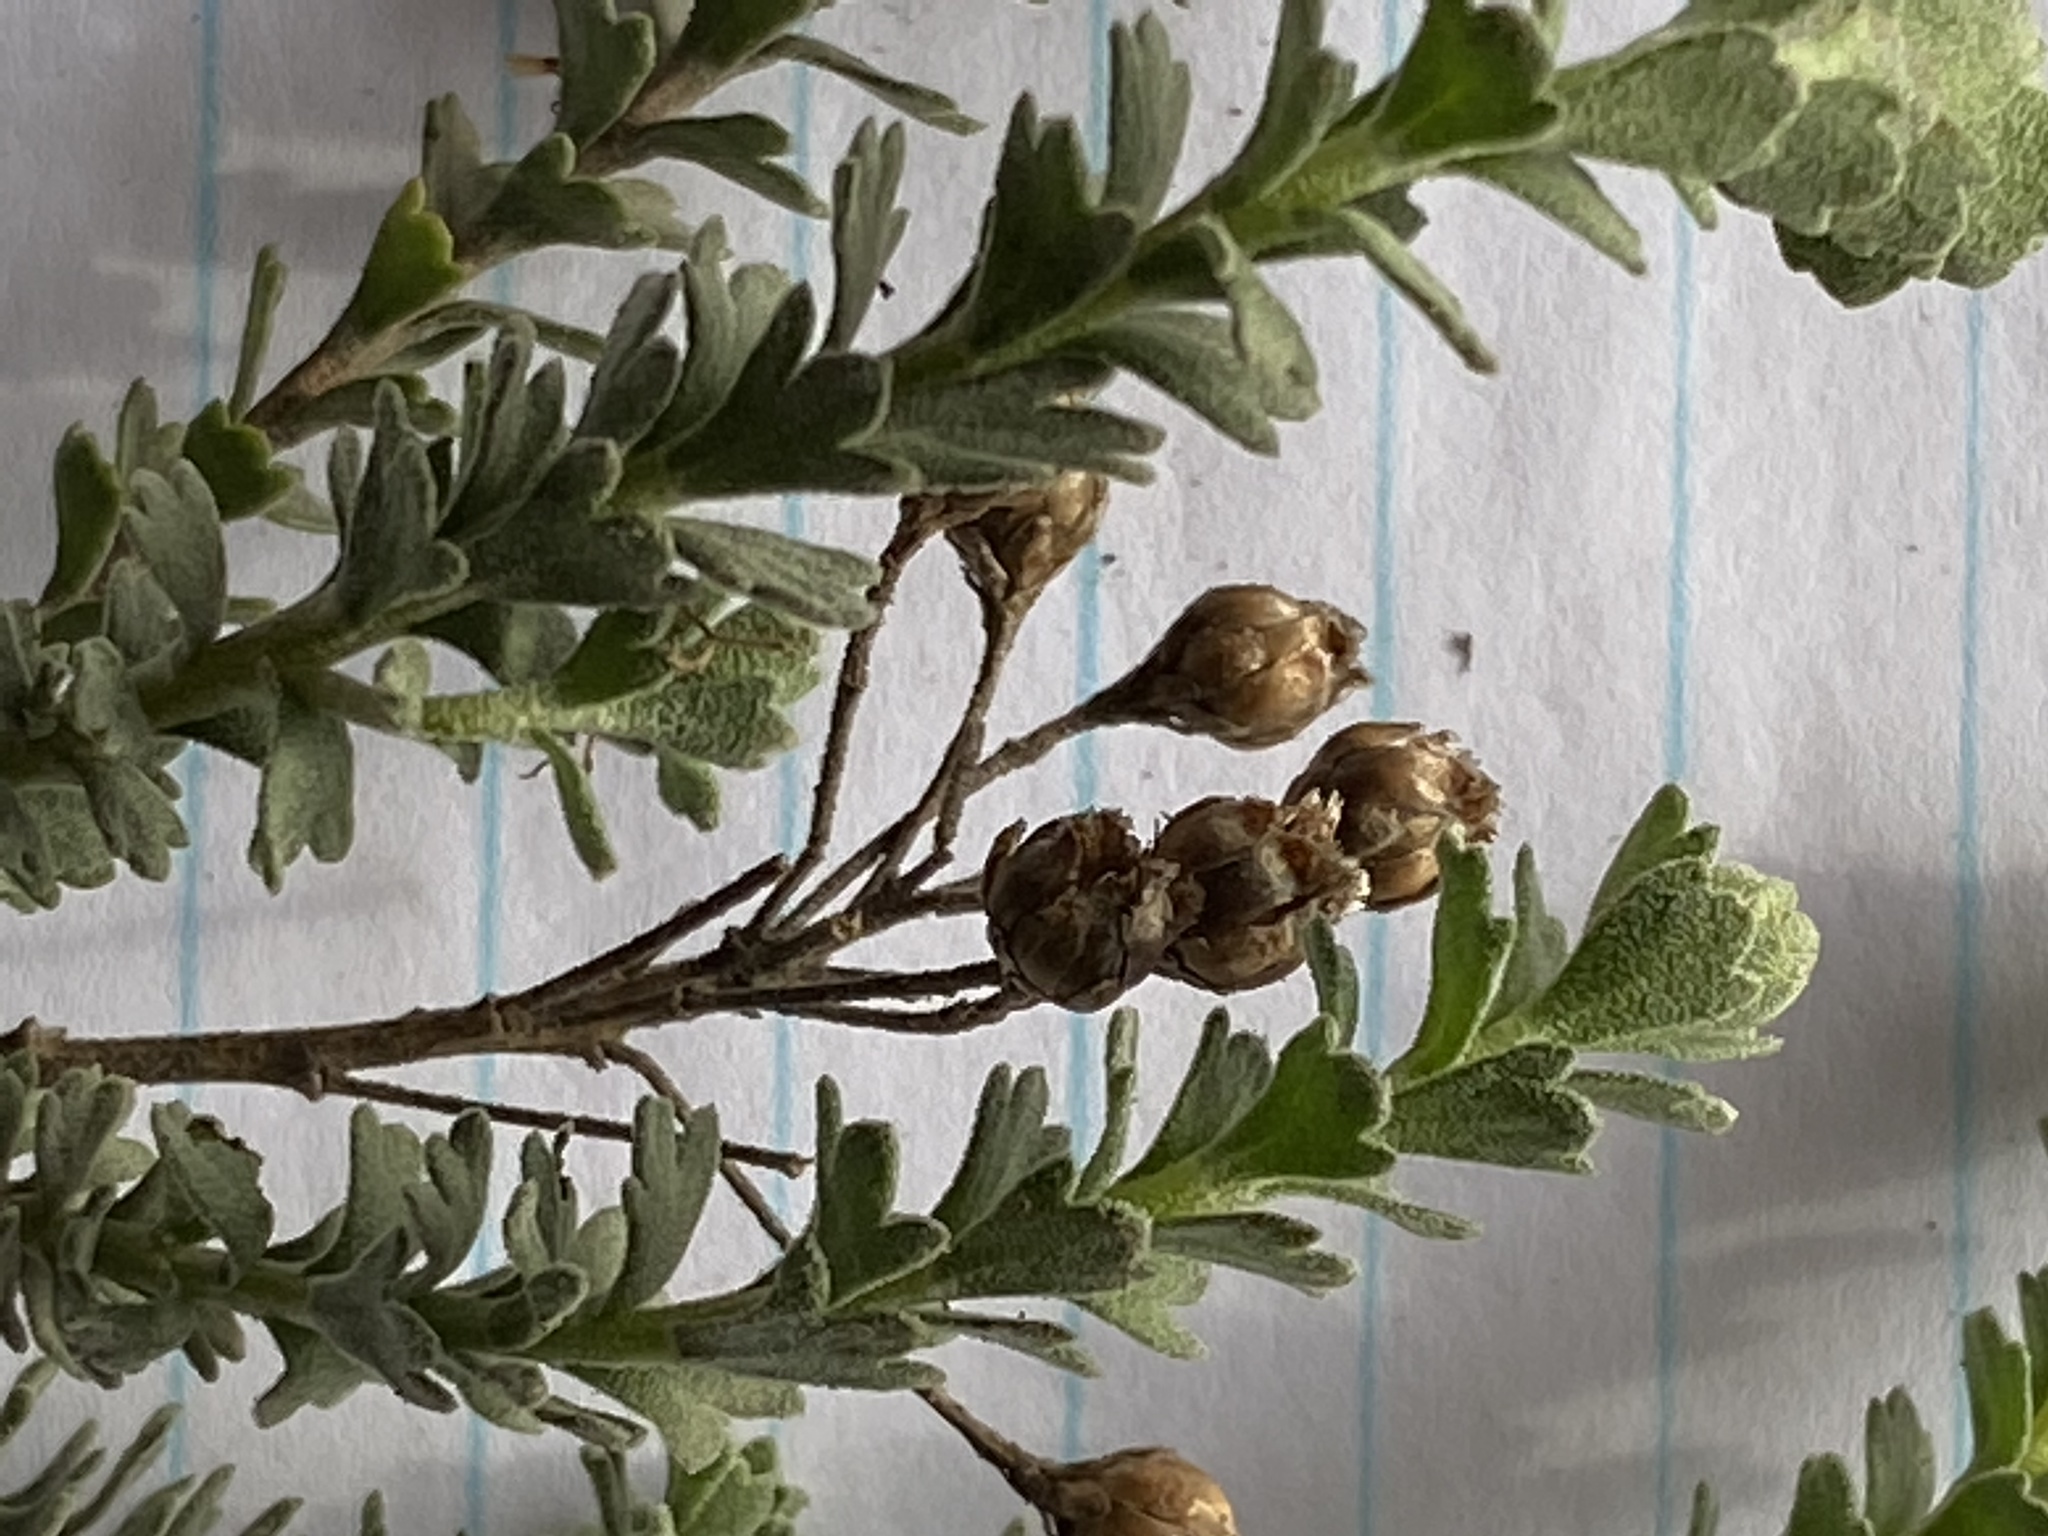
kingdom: Plantae
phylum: Tracheophyta
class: Magnoliopsida
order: Asterales
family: Asteraceae
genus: Athanasia
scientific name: Athanasia trifurcata
